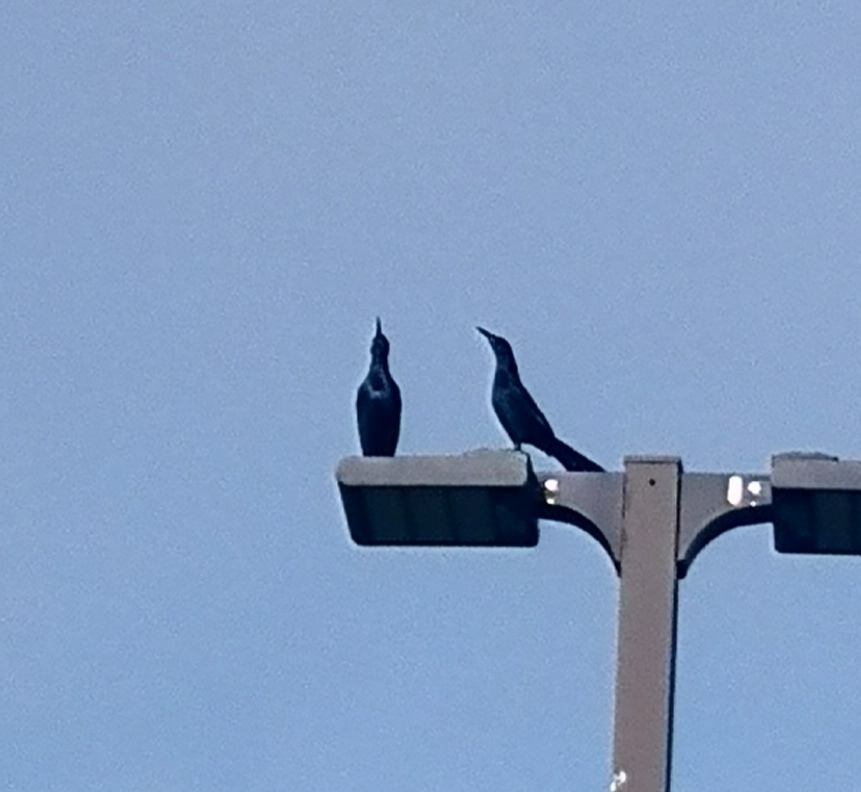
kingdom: Animalia
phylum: Chordata
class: Aves
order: Passeriformes
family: Icteridae
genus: Quiscalus
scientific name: Quiscalus major
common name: Boat-tailed grackle
